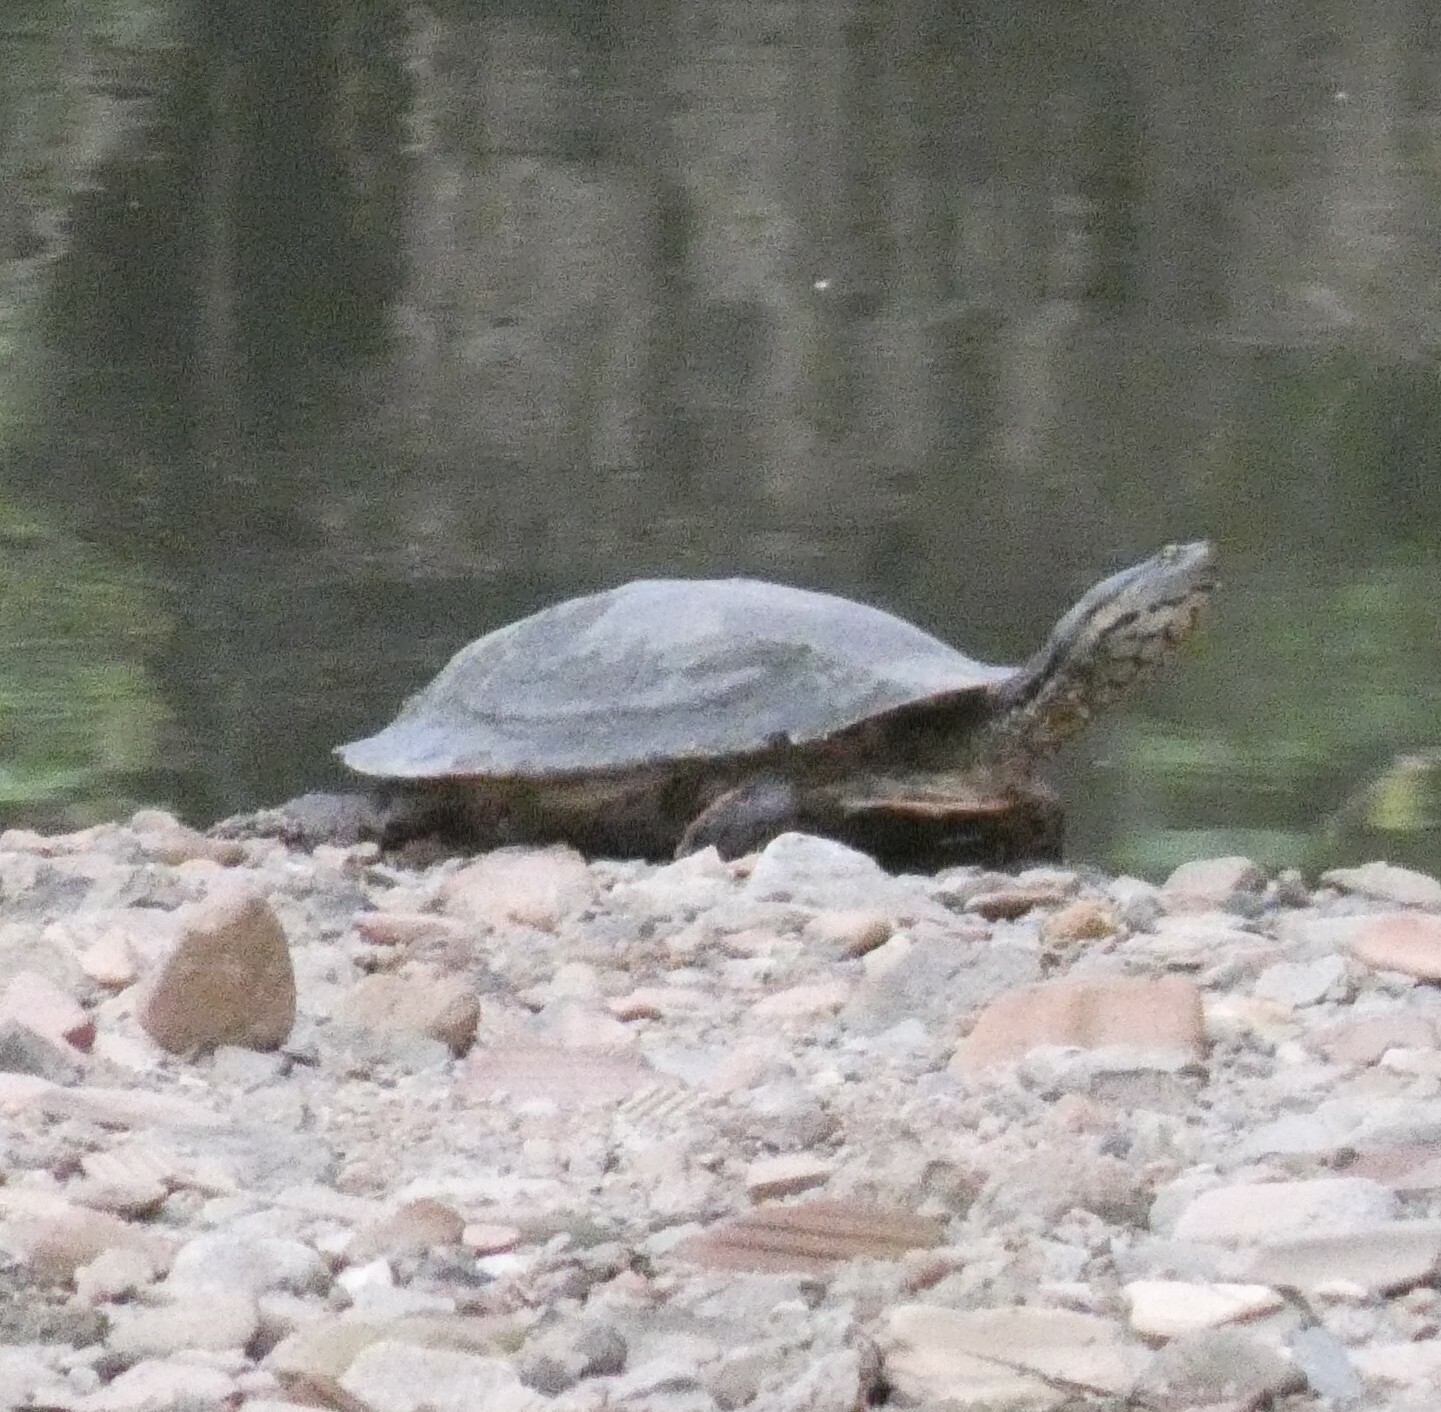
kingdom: Animalia
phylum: Chordata
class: Testudines
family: Chelidae
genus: Phrynops
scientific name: Phrynops geoffroanus
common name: Side-necked turtle of geoffroy
